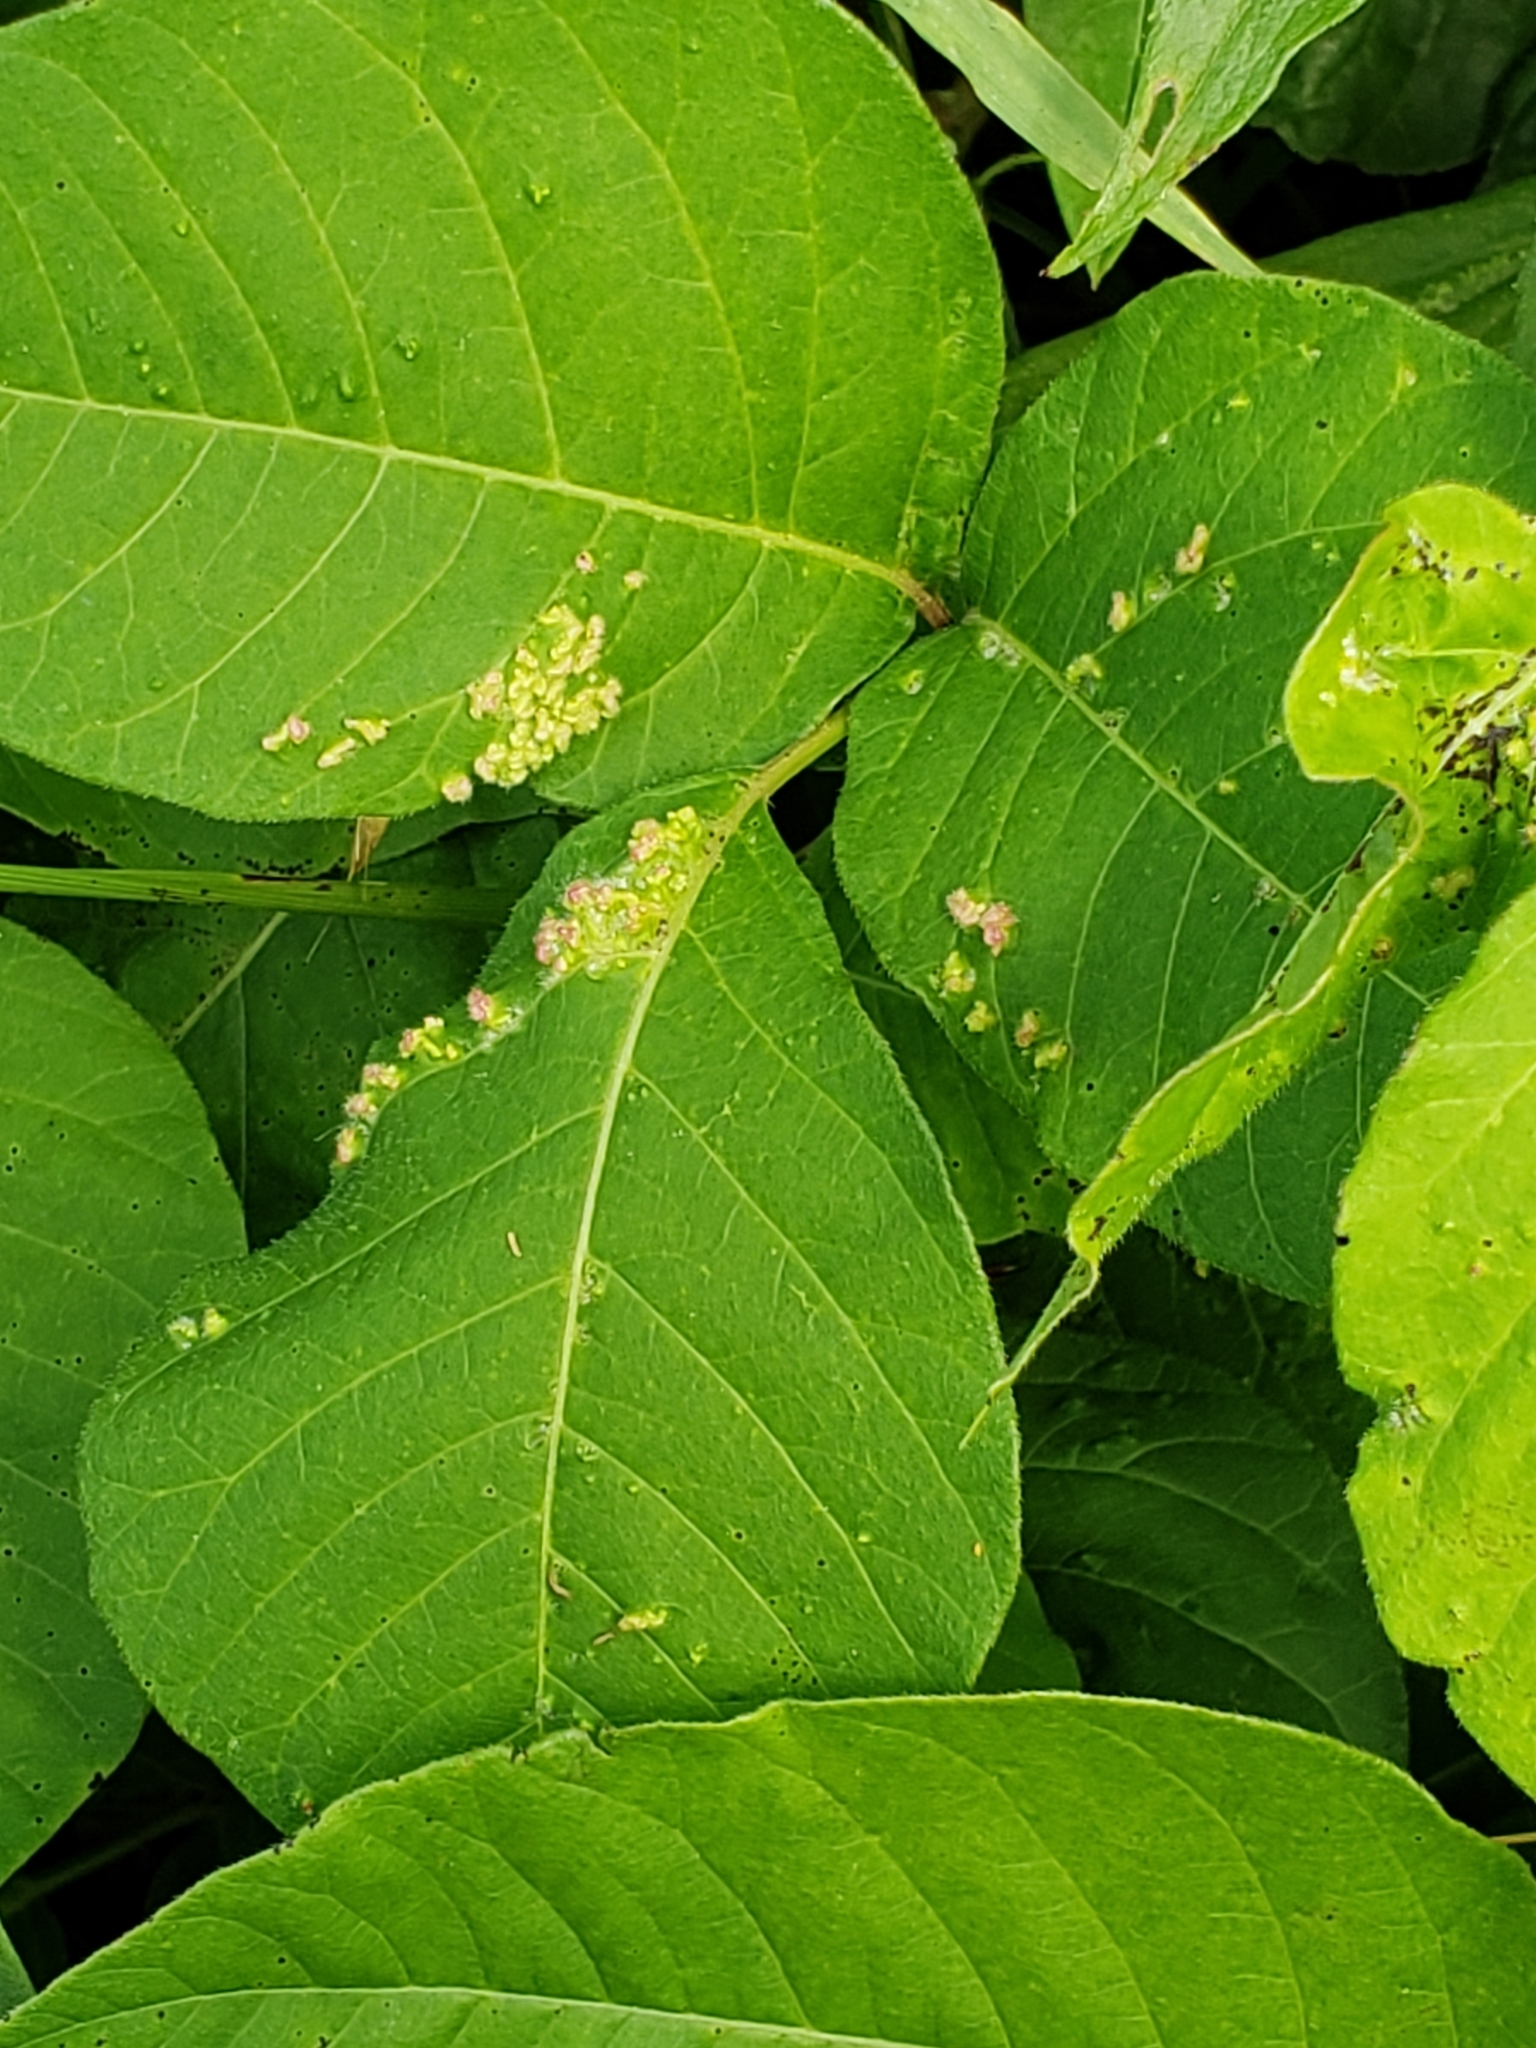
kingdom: Animalia
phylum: Arthropoda
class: Arachnida
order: Trombidiformes
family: Eriophyidae
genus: Aculops
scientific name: Aculops
